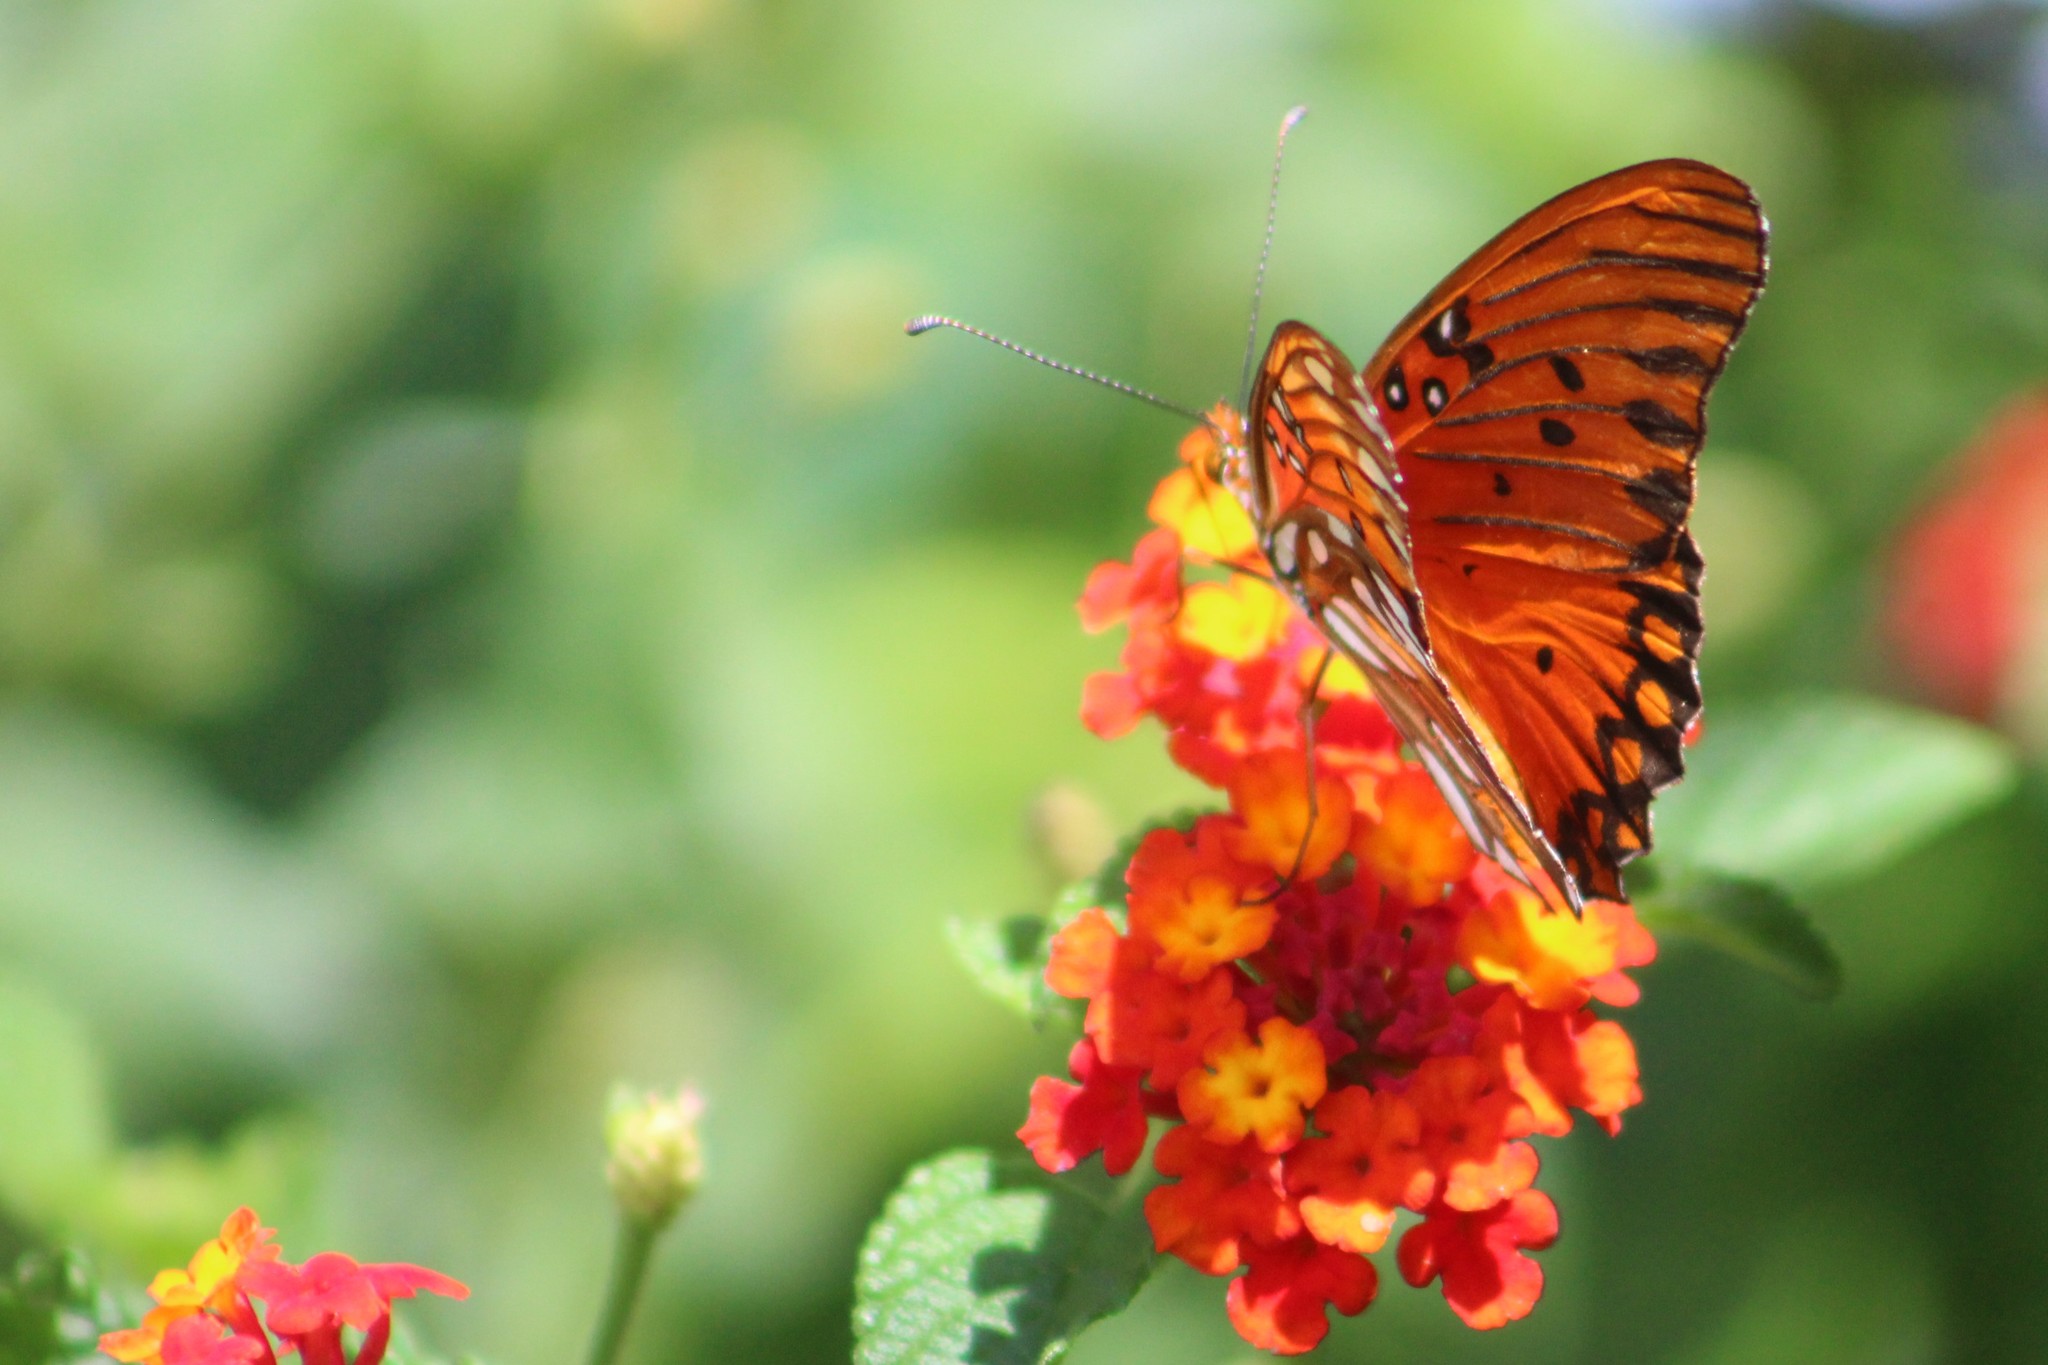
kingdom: Animalia
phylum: Arthropoda
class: Insecta
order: Lepidoptera
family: Nymphalidae
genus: Dione
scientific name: Dione vanillae
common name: Gulf fritillary
